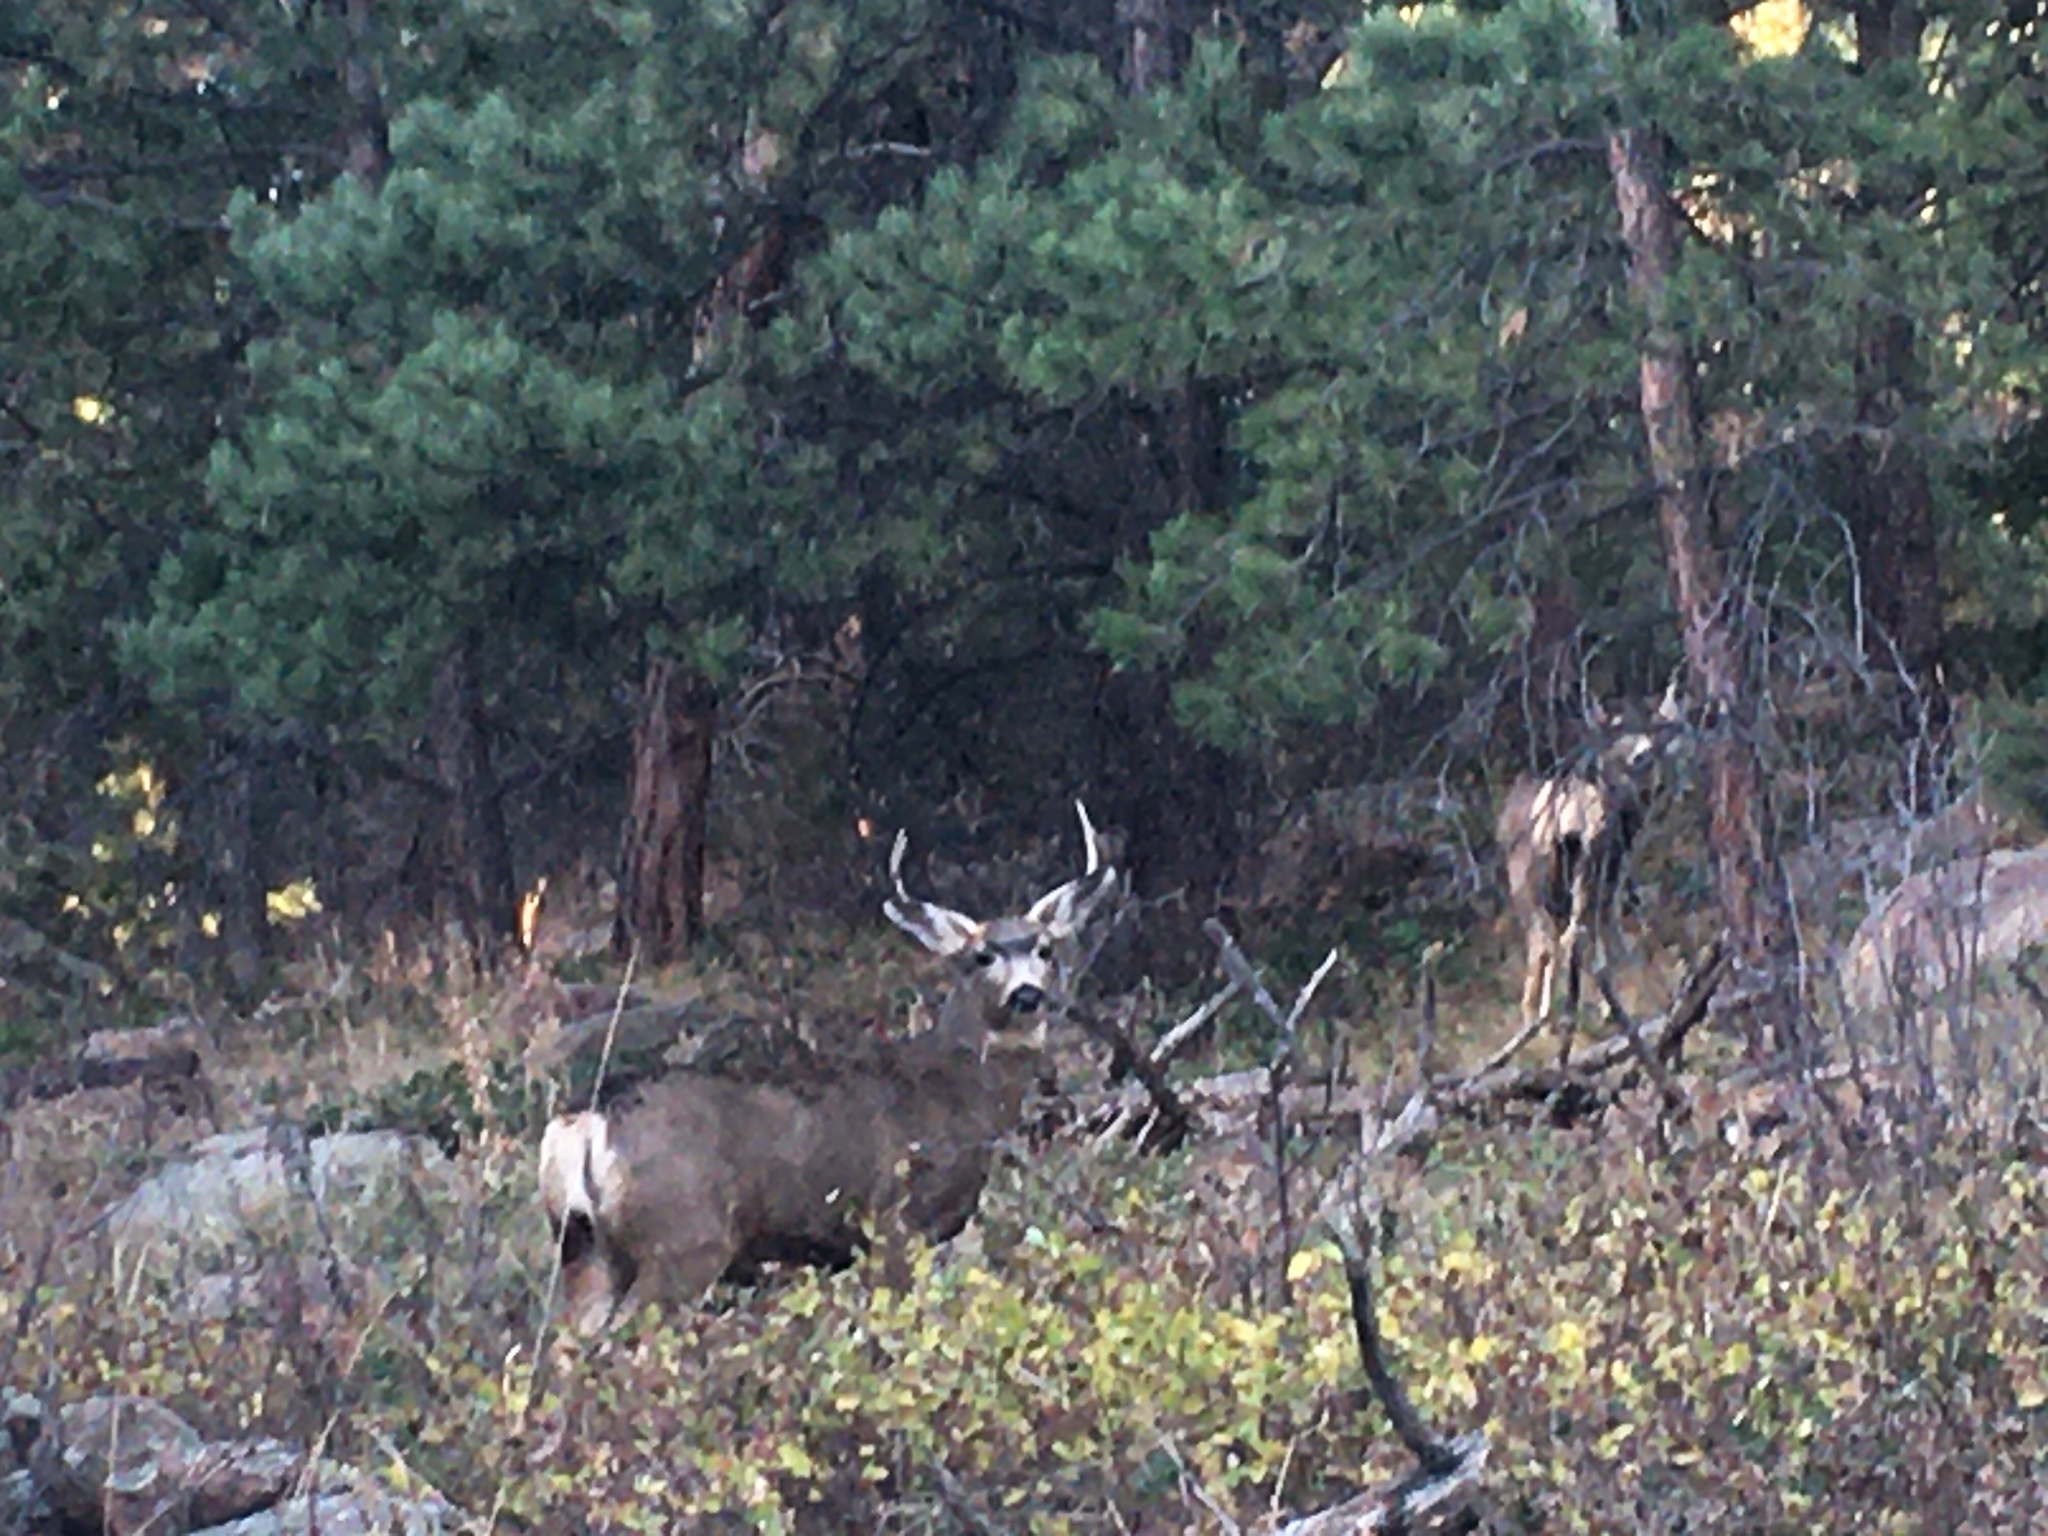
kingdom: Animalia
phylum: Chordata
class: Mammalia
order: Artiodactyla
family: Cervidae
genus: Odocoileus
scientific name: Odocoileus hemionus
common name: Mule deer
